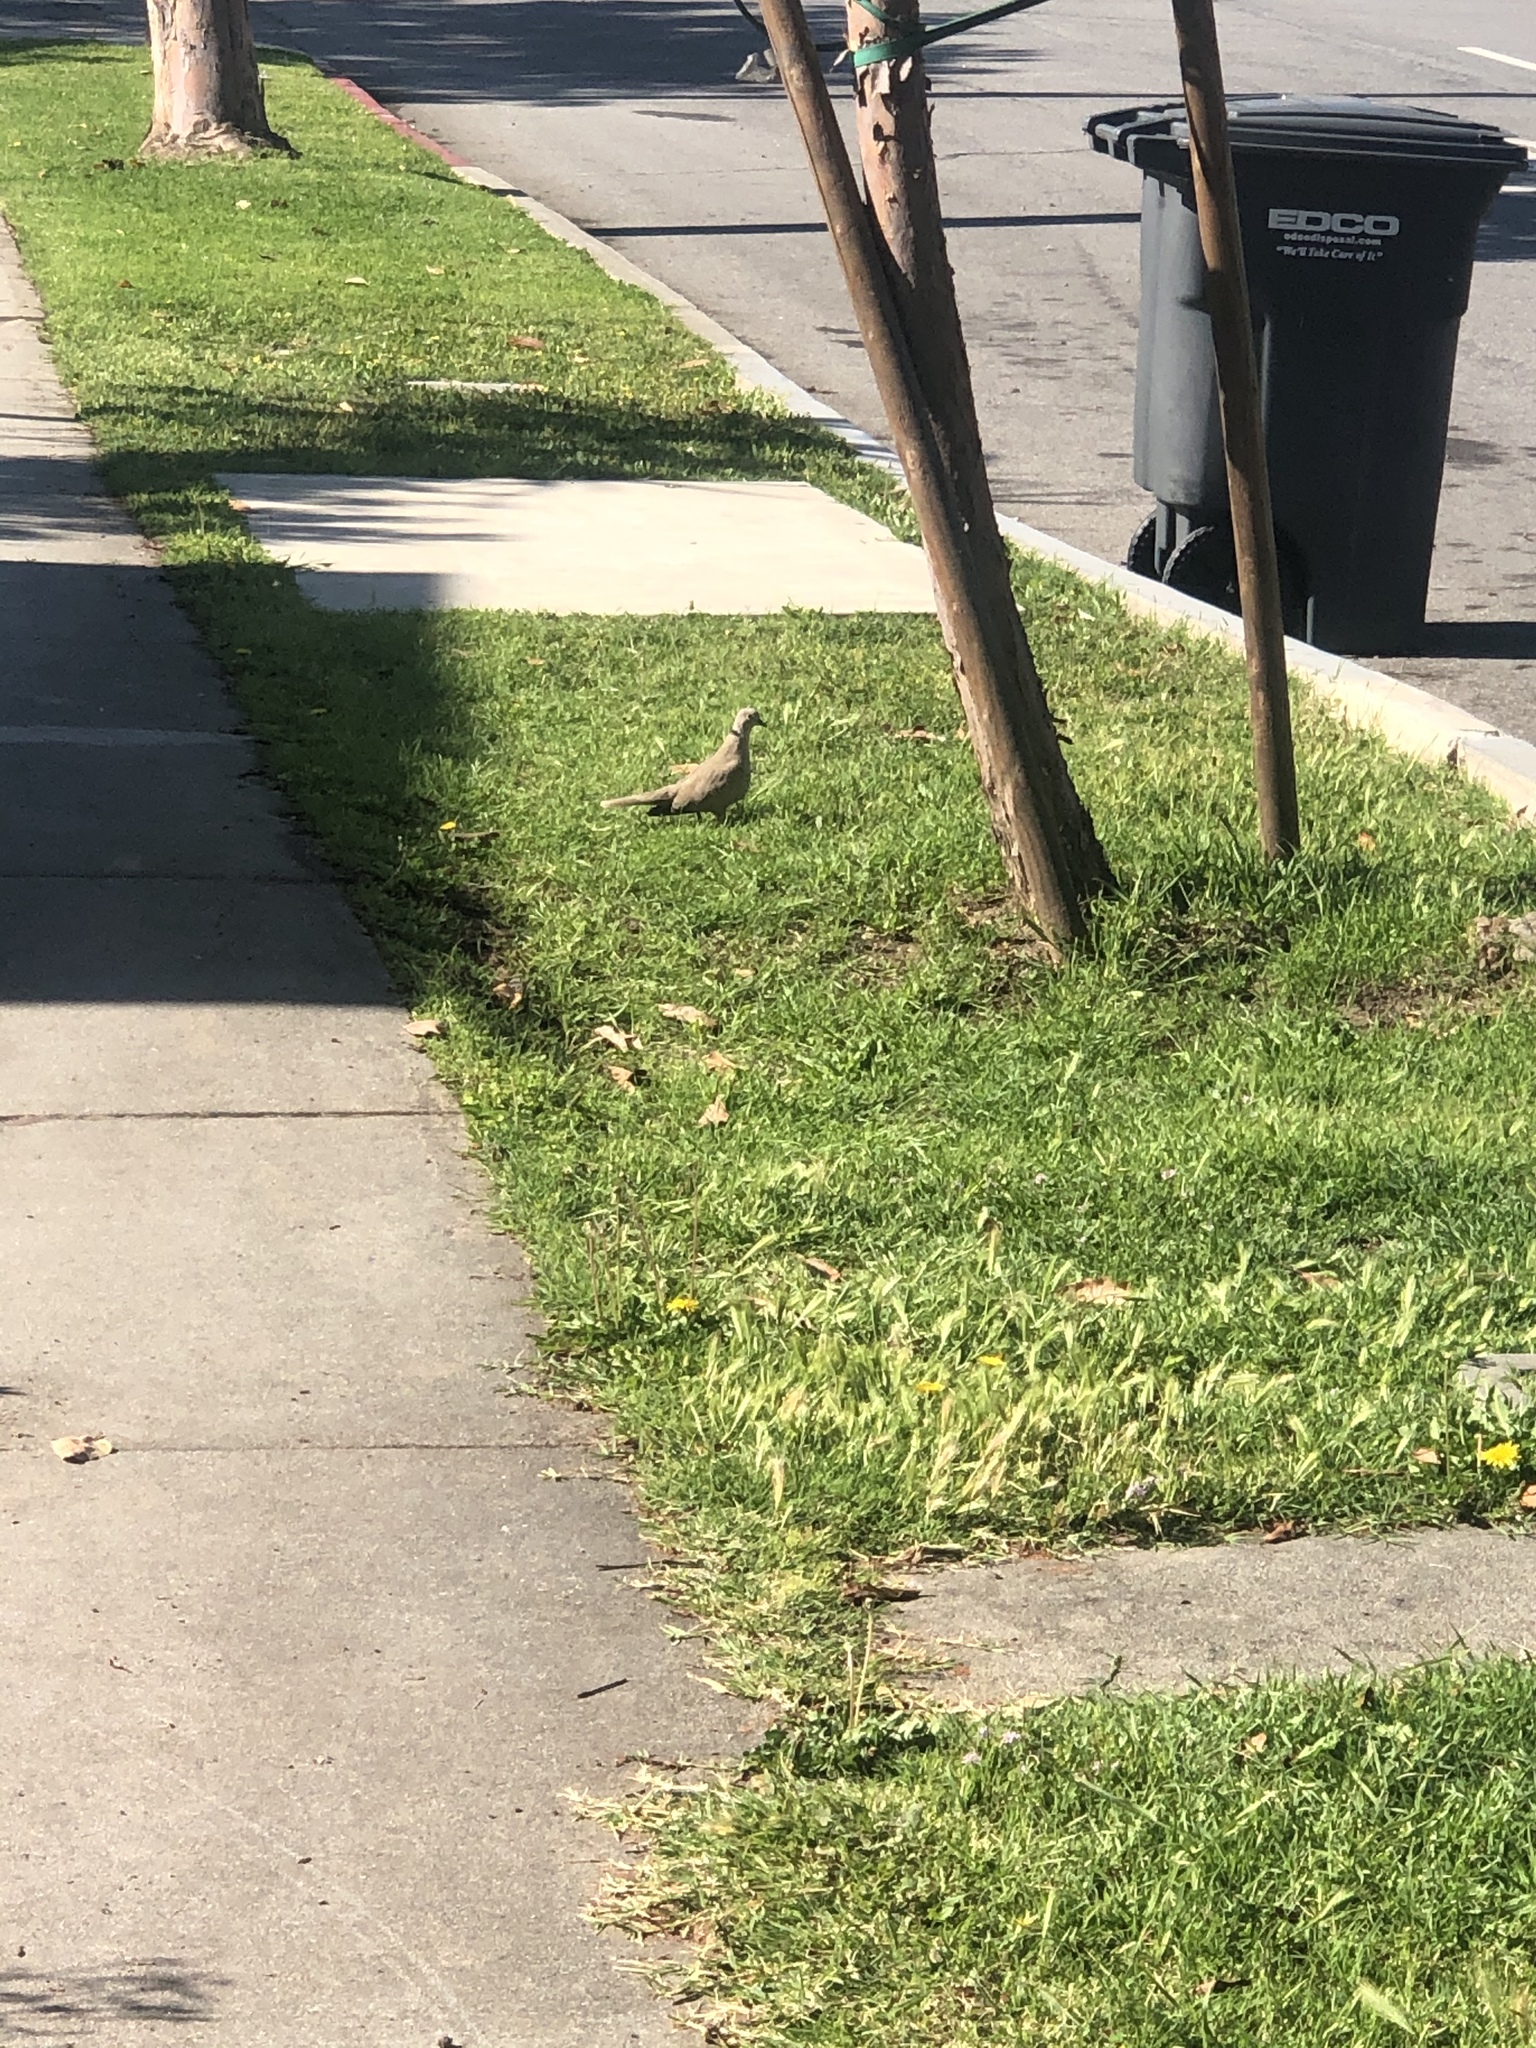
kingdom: Animalia
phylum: Chordata
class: Aves
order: Columbiformes
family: Columbidae
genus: Streptopelia
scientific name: Streptopelia decaocto
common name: Eurasian collared dove
